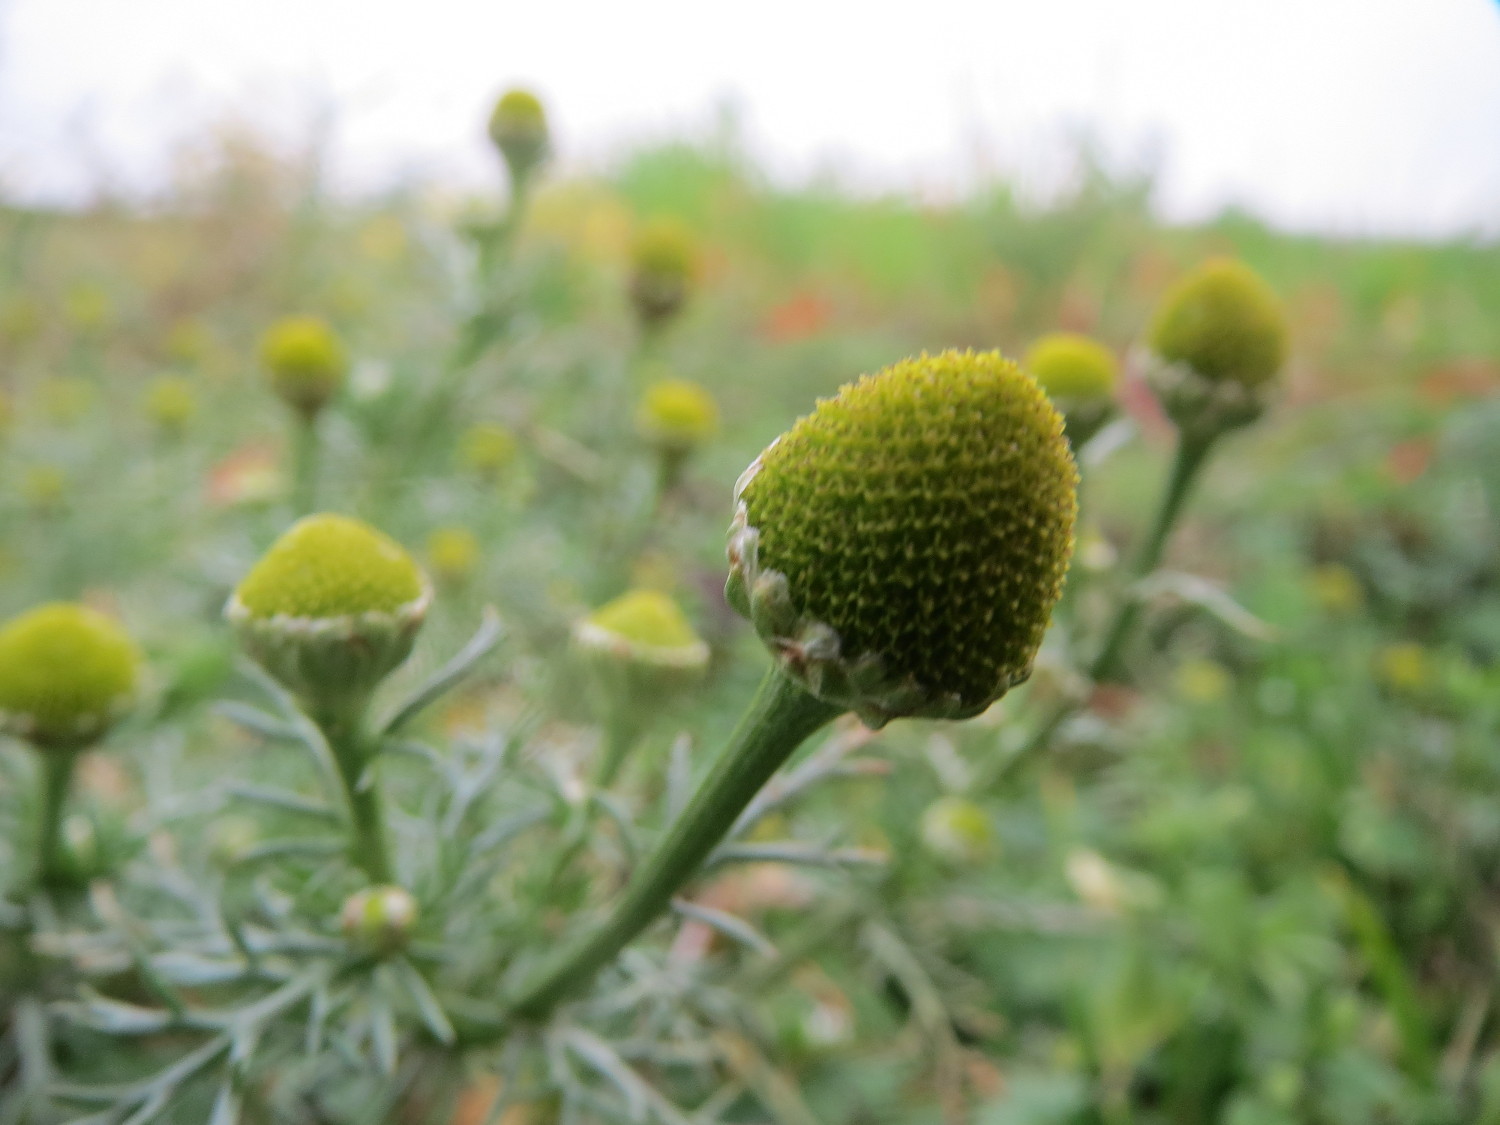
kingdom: Plantae
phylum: Tracheophyta
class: Magnoliopsida
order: Asterales
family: Asteraceae
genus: Matricaria
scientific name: Matricaria discoidea
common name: Disc mayweed
